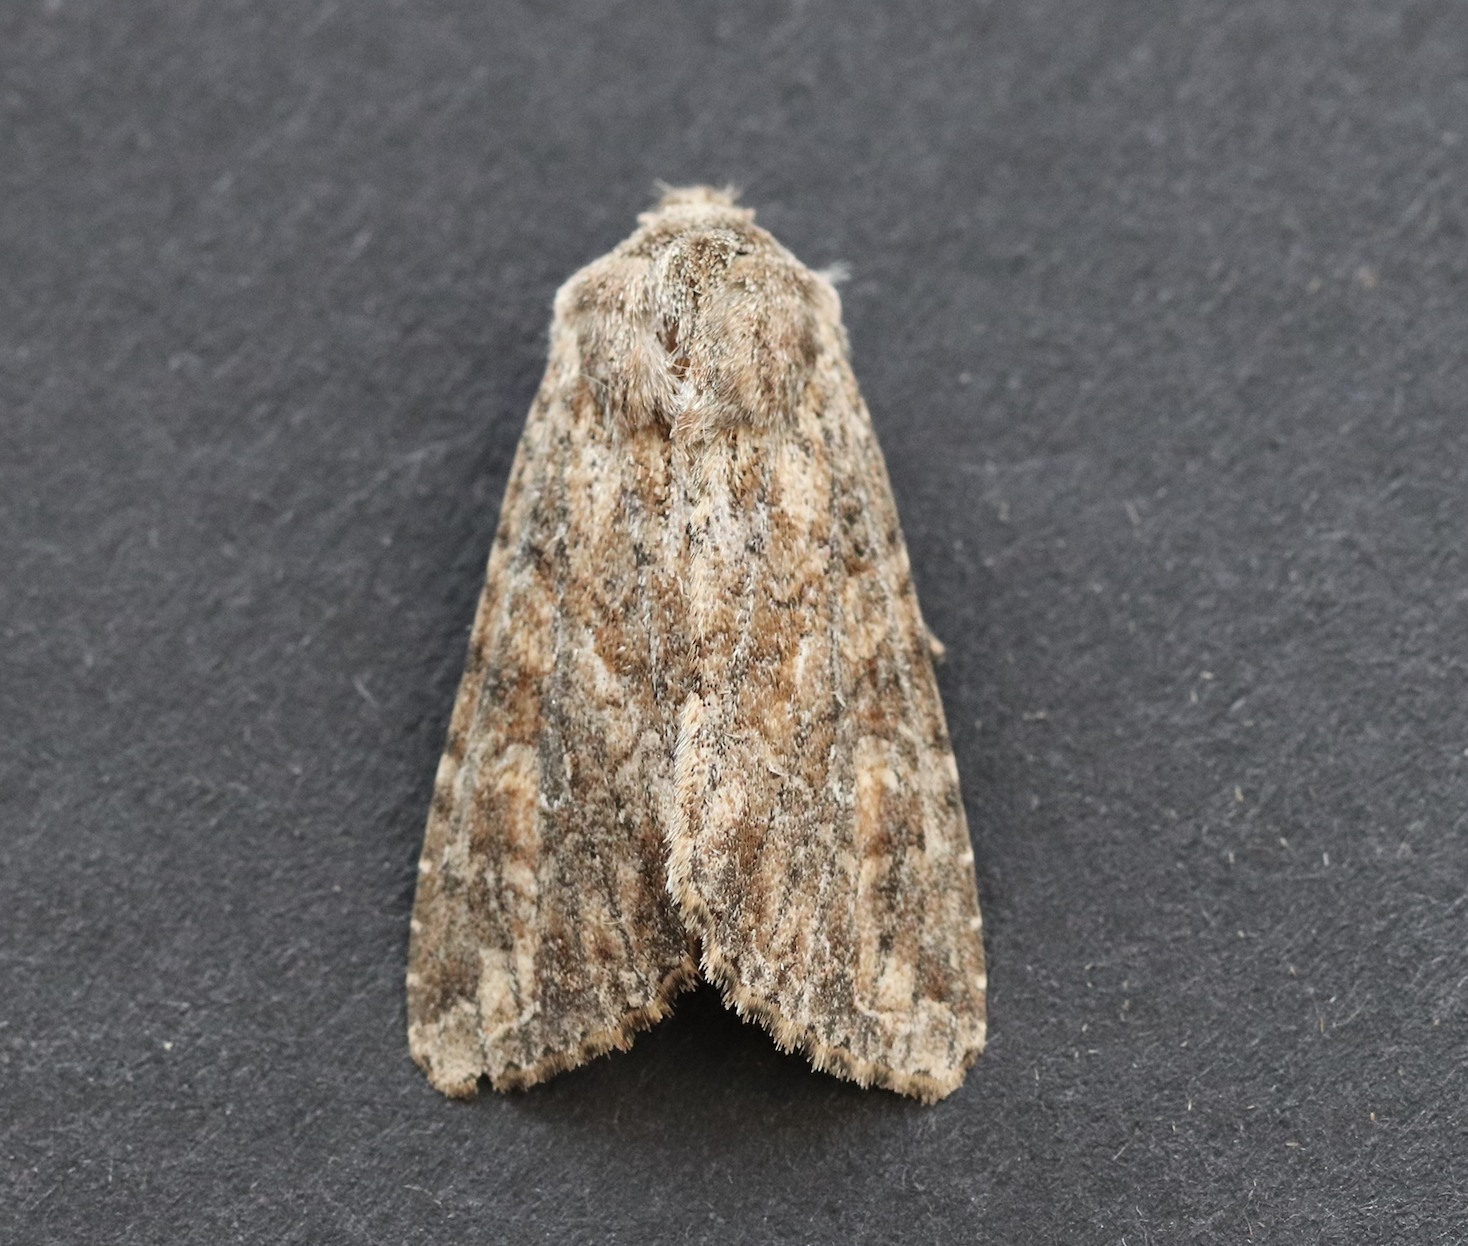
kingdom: Animalia
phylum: Arthropoda
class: Insecta
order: Lepidoptera
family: Noctuidae
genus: Apamea
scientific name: Apamea anceps
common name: Large nutmeg
